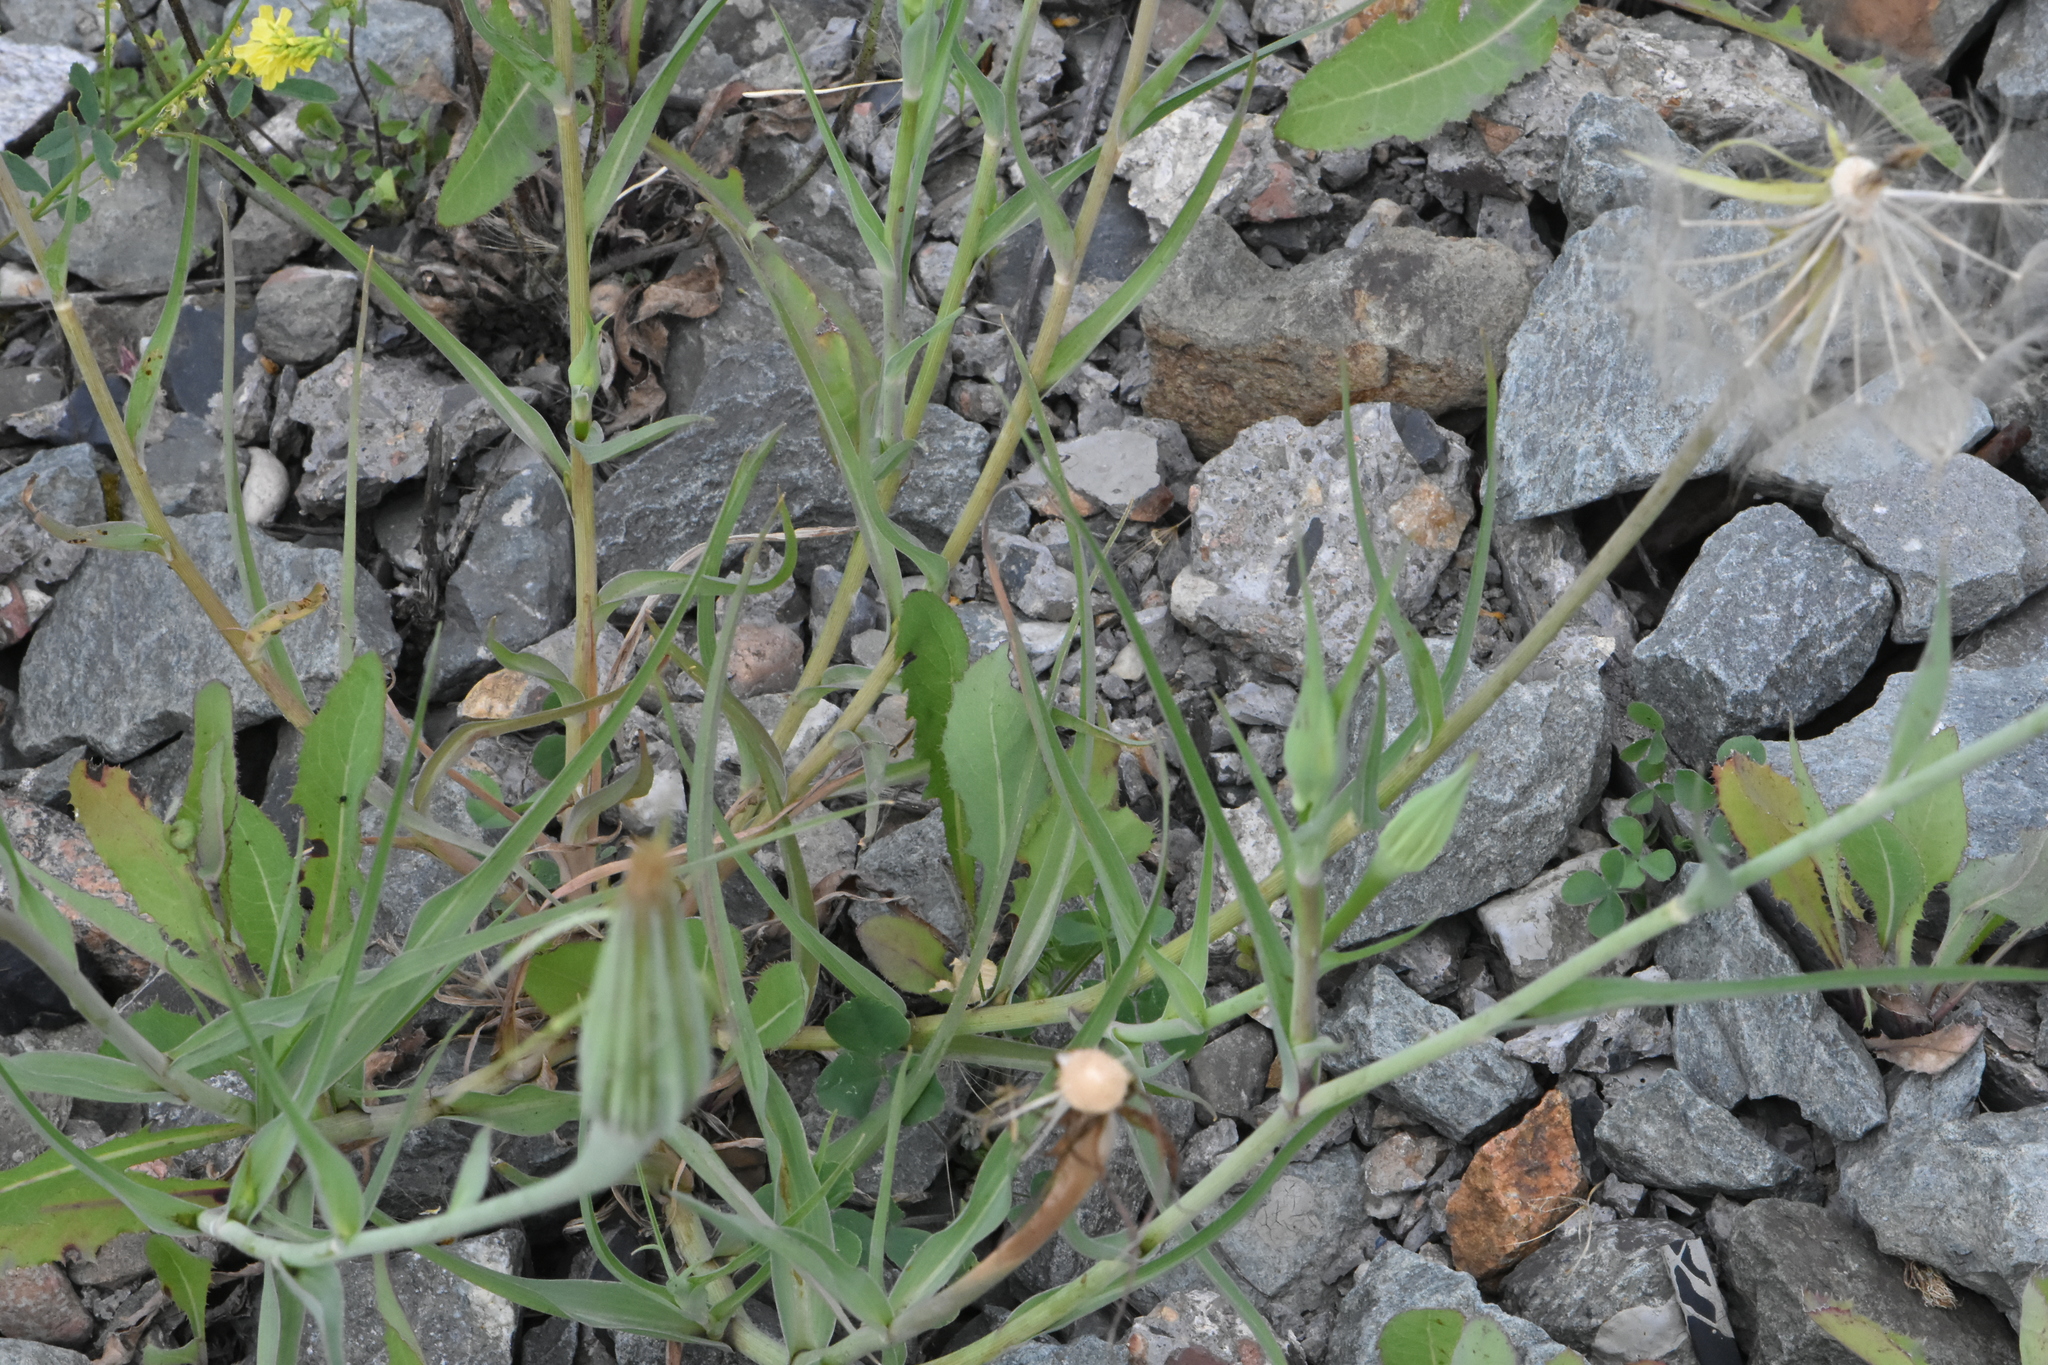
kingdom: Plantae
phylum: Tracheophyta
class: Magnoliopsida
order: Asterales
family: Asteraceae
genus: Tragopogon
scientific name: Tragopogon dubius
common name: Yellow salsify
